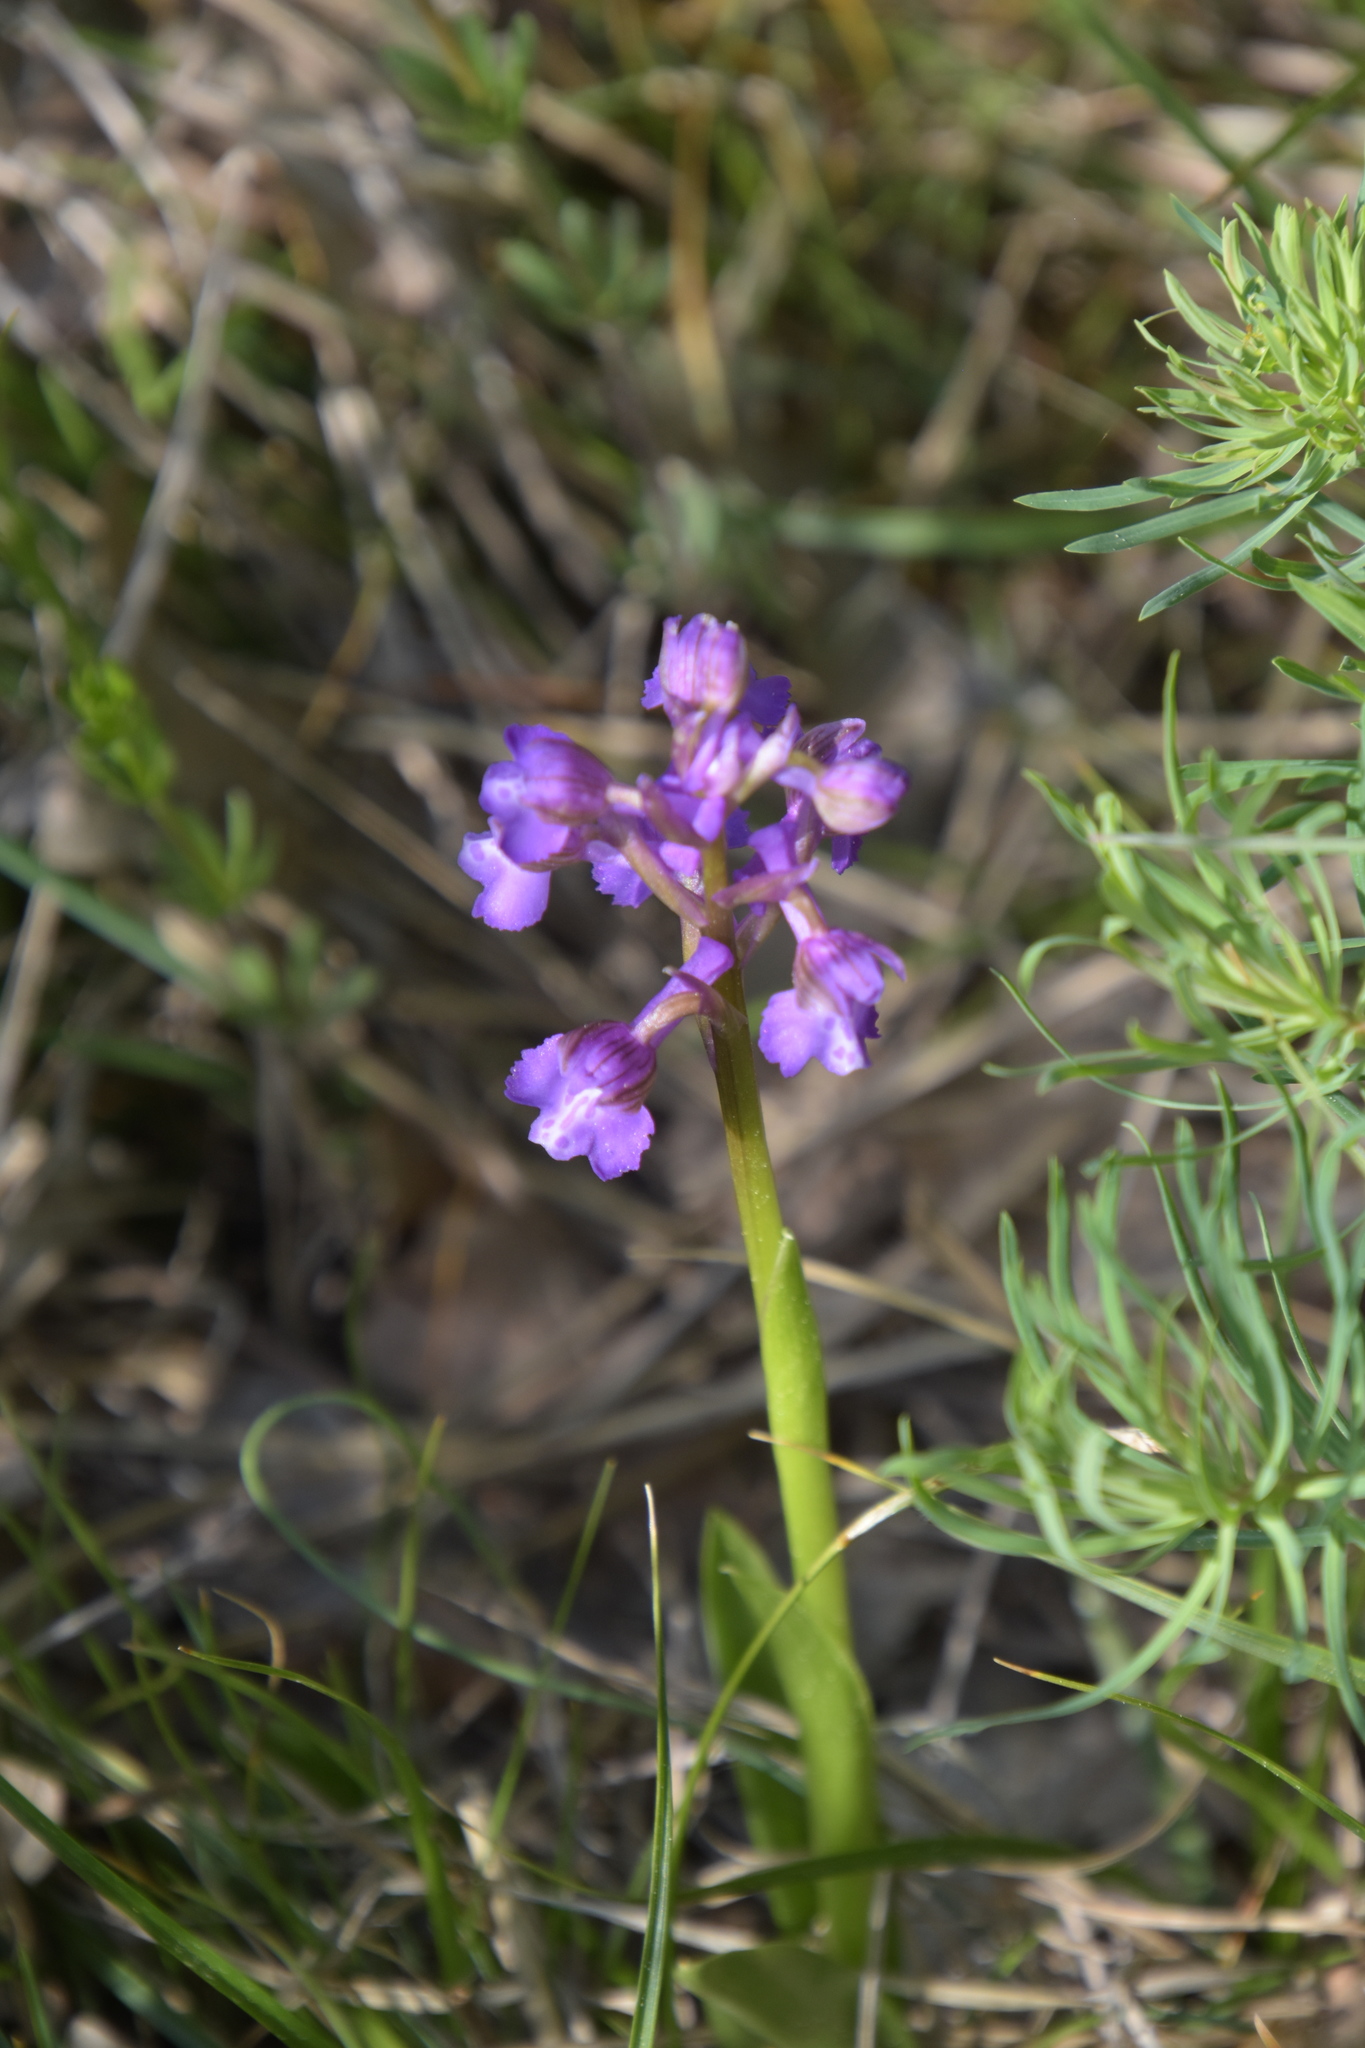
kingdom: Plantae
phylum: Tracheophyta
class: Liliopsida
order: Asparagales
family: Orchidaceae
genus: Anacamptis
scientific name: Anacamptis morio
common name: Green-winged orchid
